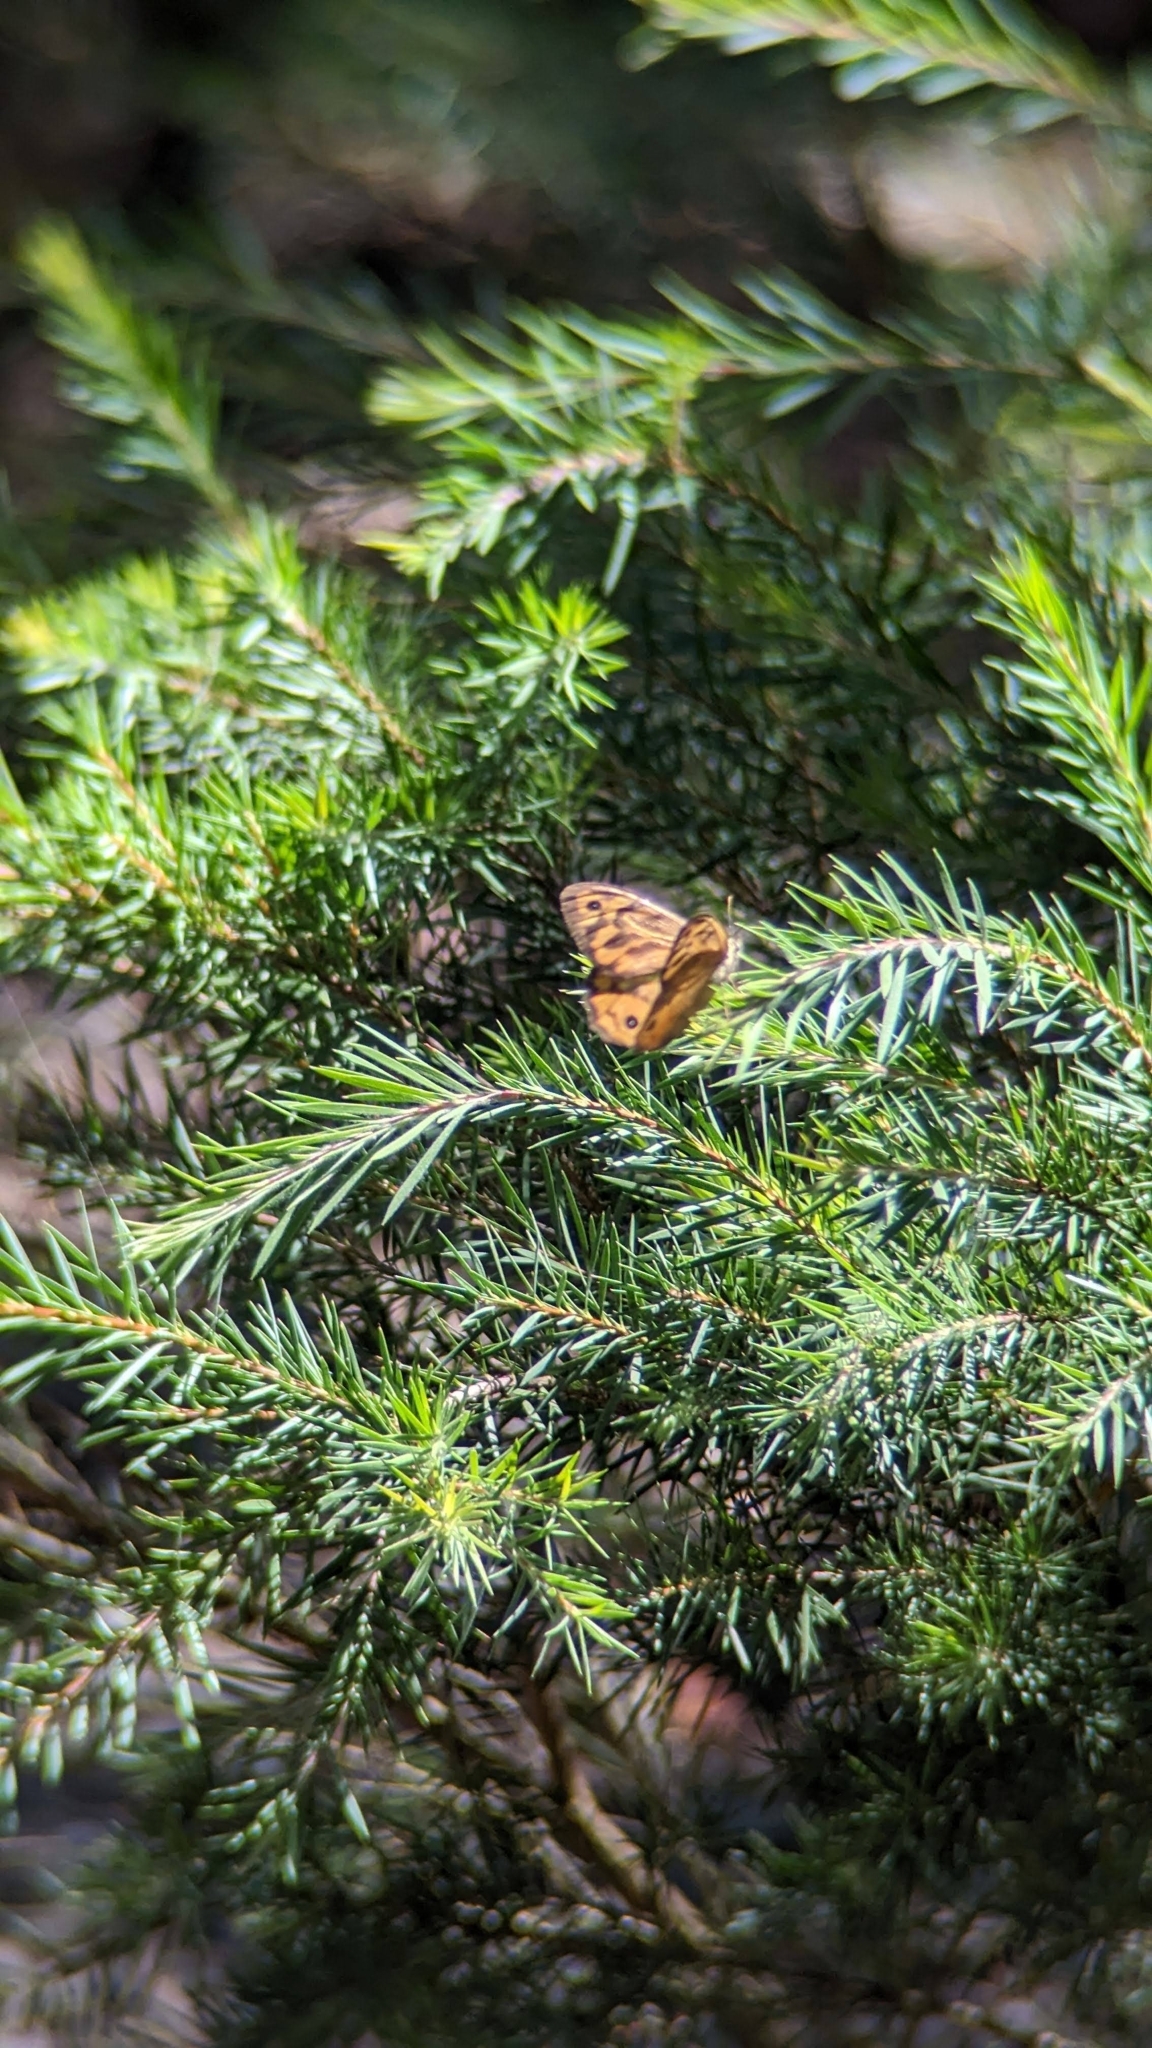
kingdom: Animalia
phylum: Arthropoda
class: Insecta
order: Lepidoptera
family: Nymphalidae
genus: Heteronympha
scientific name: Heteronympha merope
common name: Common brown
